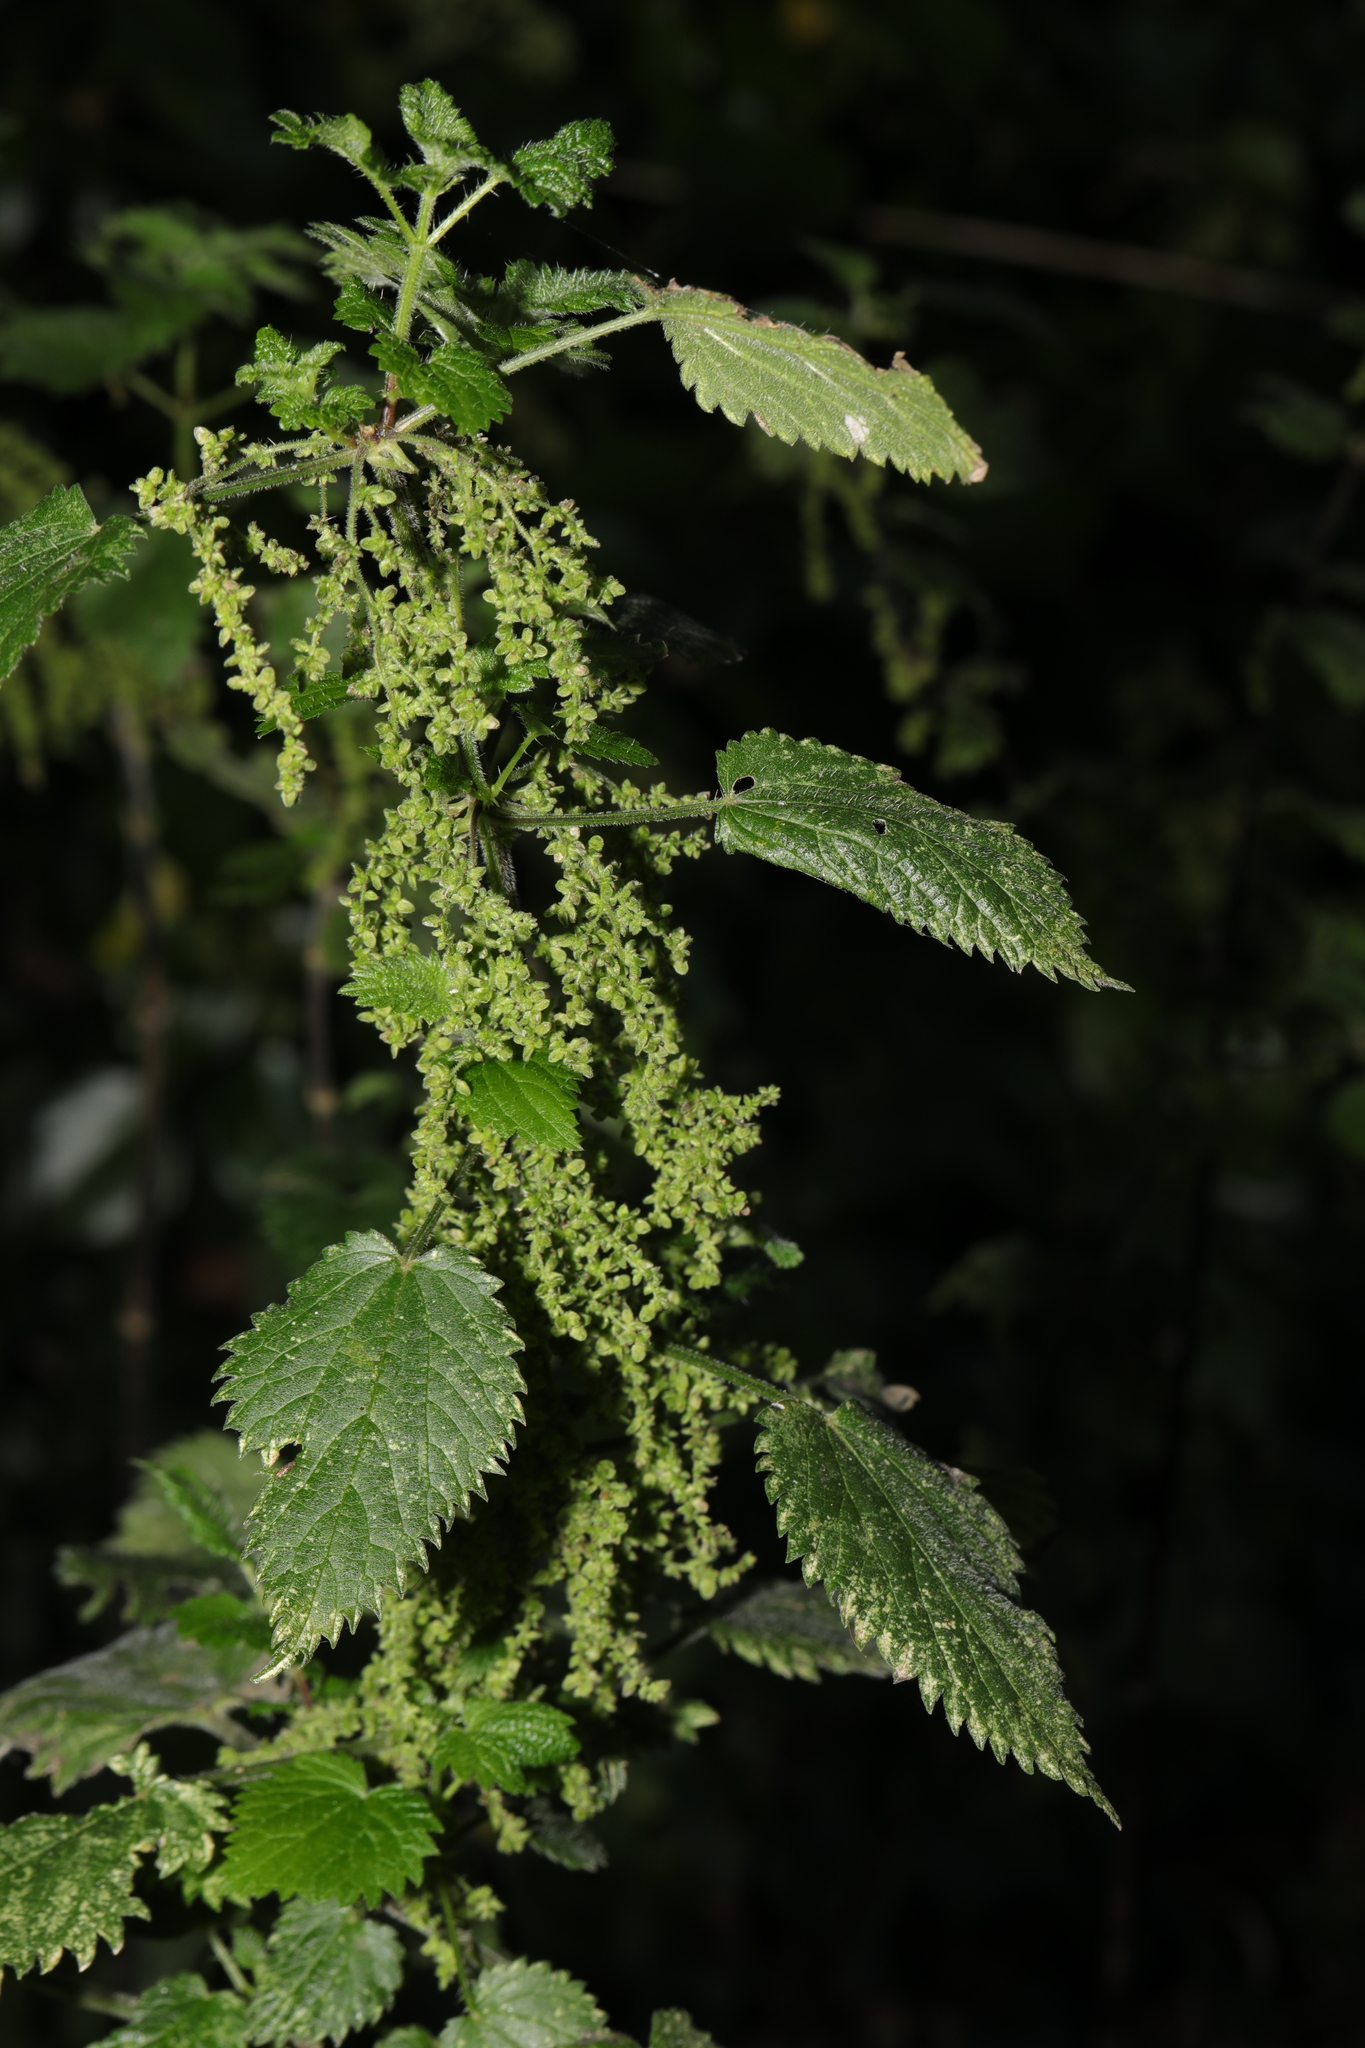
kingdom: Plantae
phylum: Tracheophyta
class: Magnoliopsida
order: Rosales
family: Urticaceae
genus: Urtica
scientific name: Urtica dioica
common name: Common nettle
